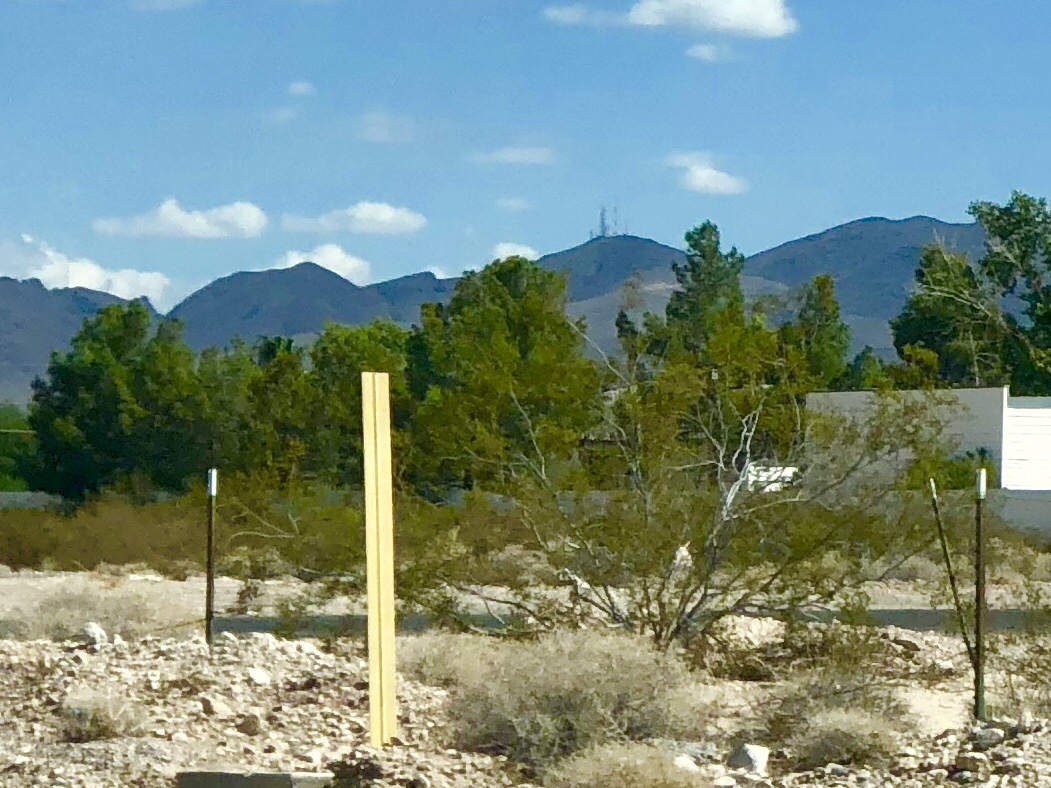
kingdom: Plantae
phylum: Tracheophyta
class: Magnoliopsida
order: Zygophyllales
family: Zygophyllaceae
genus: Larrea
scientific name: Larrea tridentata
